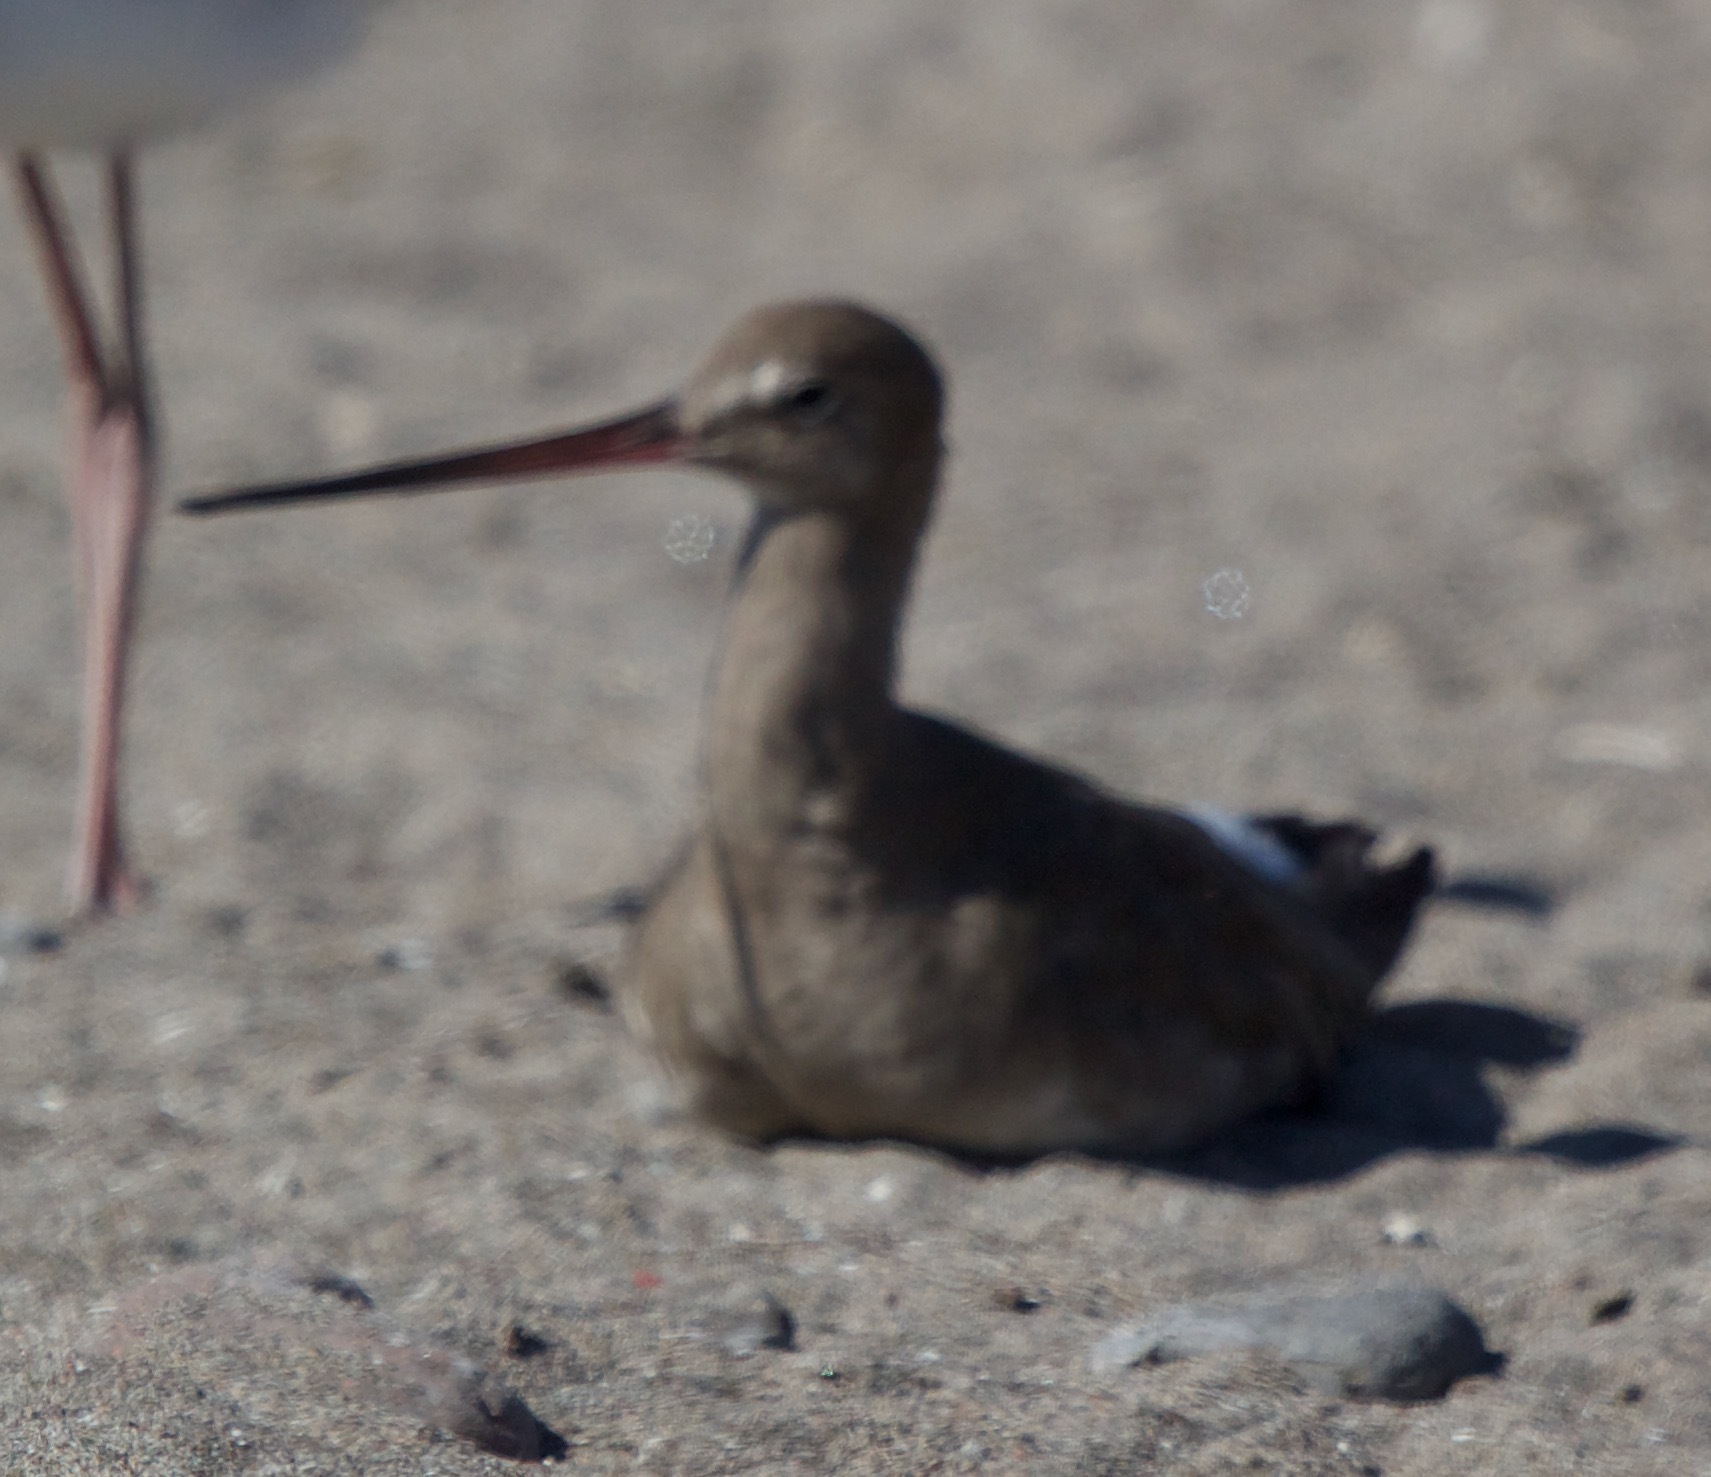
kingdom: Animalia
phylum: Chordata
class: Aves
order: Charadriiformes
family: Scolopacidae
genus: Limosa
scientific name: Limosa haemastica
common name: Hudsonian godwit
